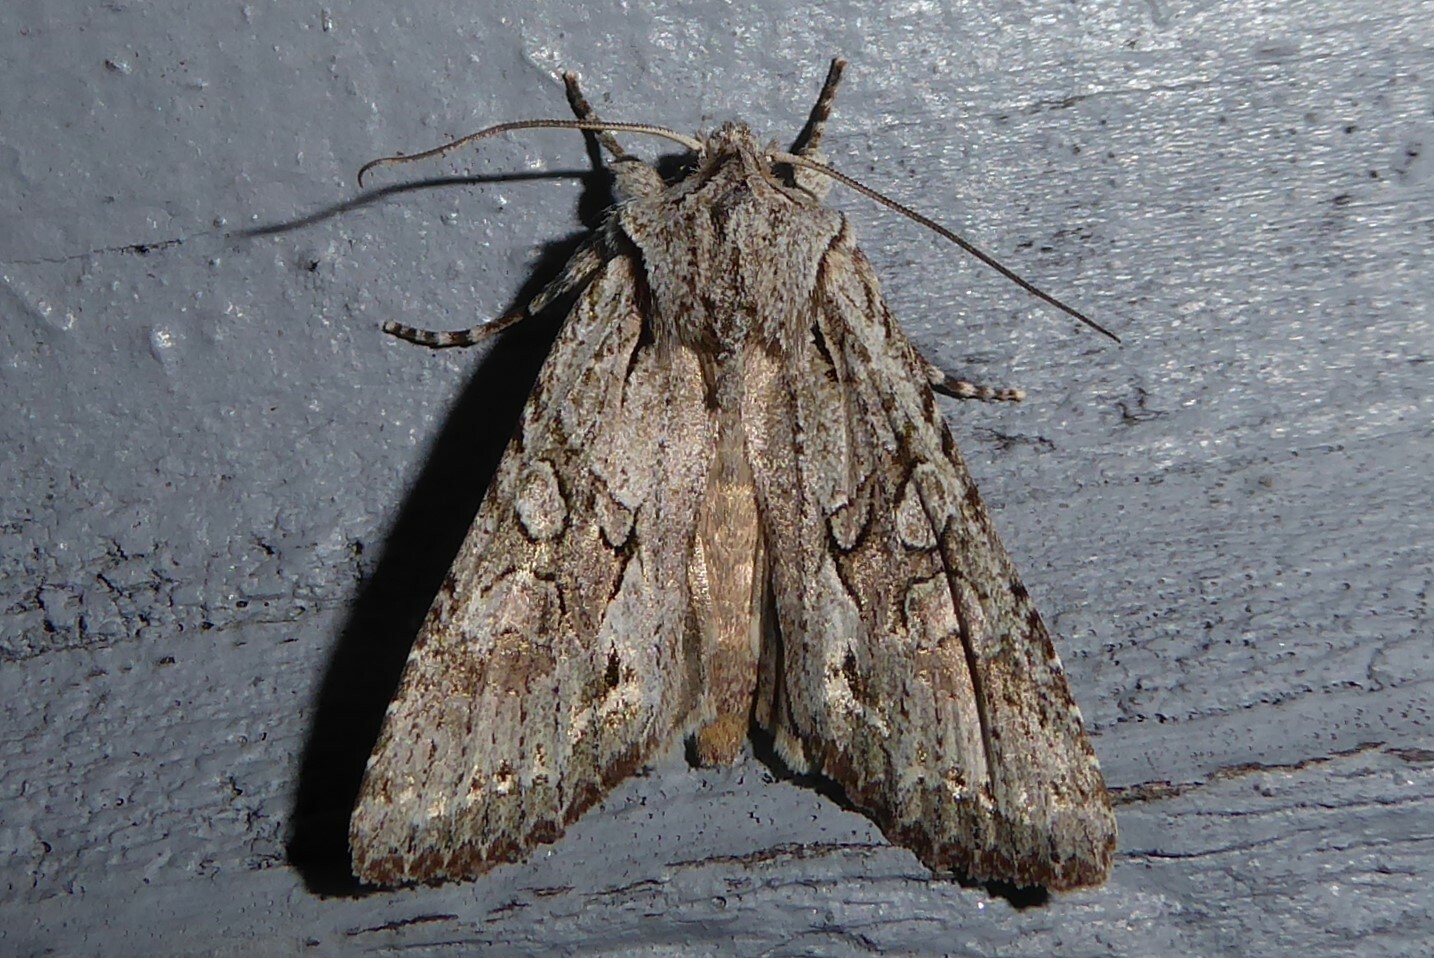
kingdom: Animalia
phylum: Arthropoda
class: Insecta
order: Lepidoptera
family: Noctuidae
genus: Ichneutica
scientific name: Ichneutica mutans
